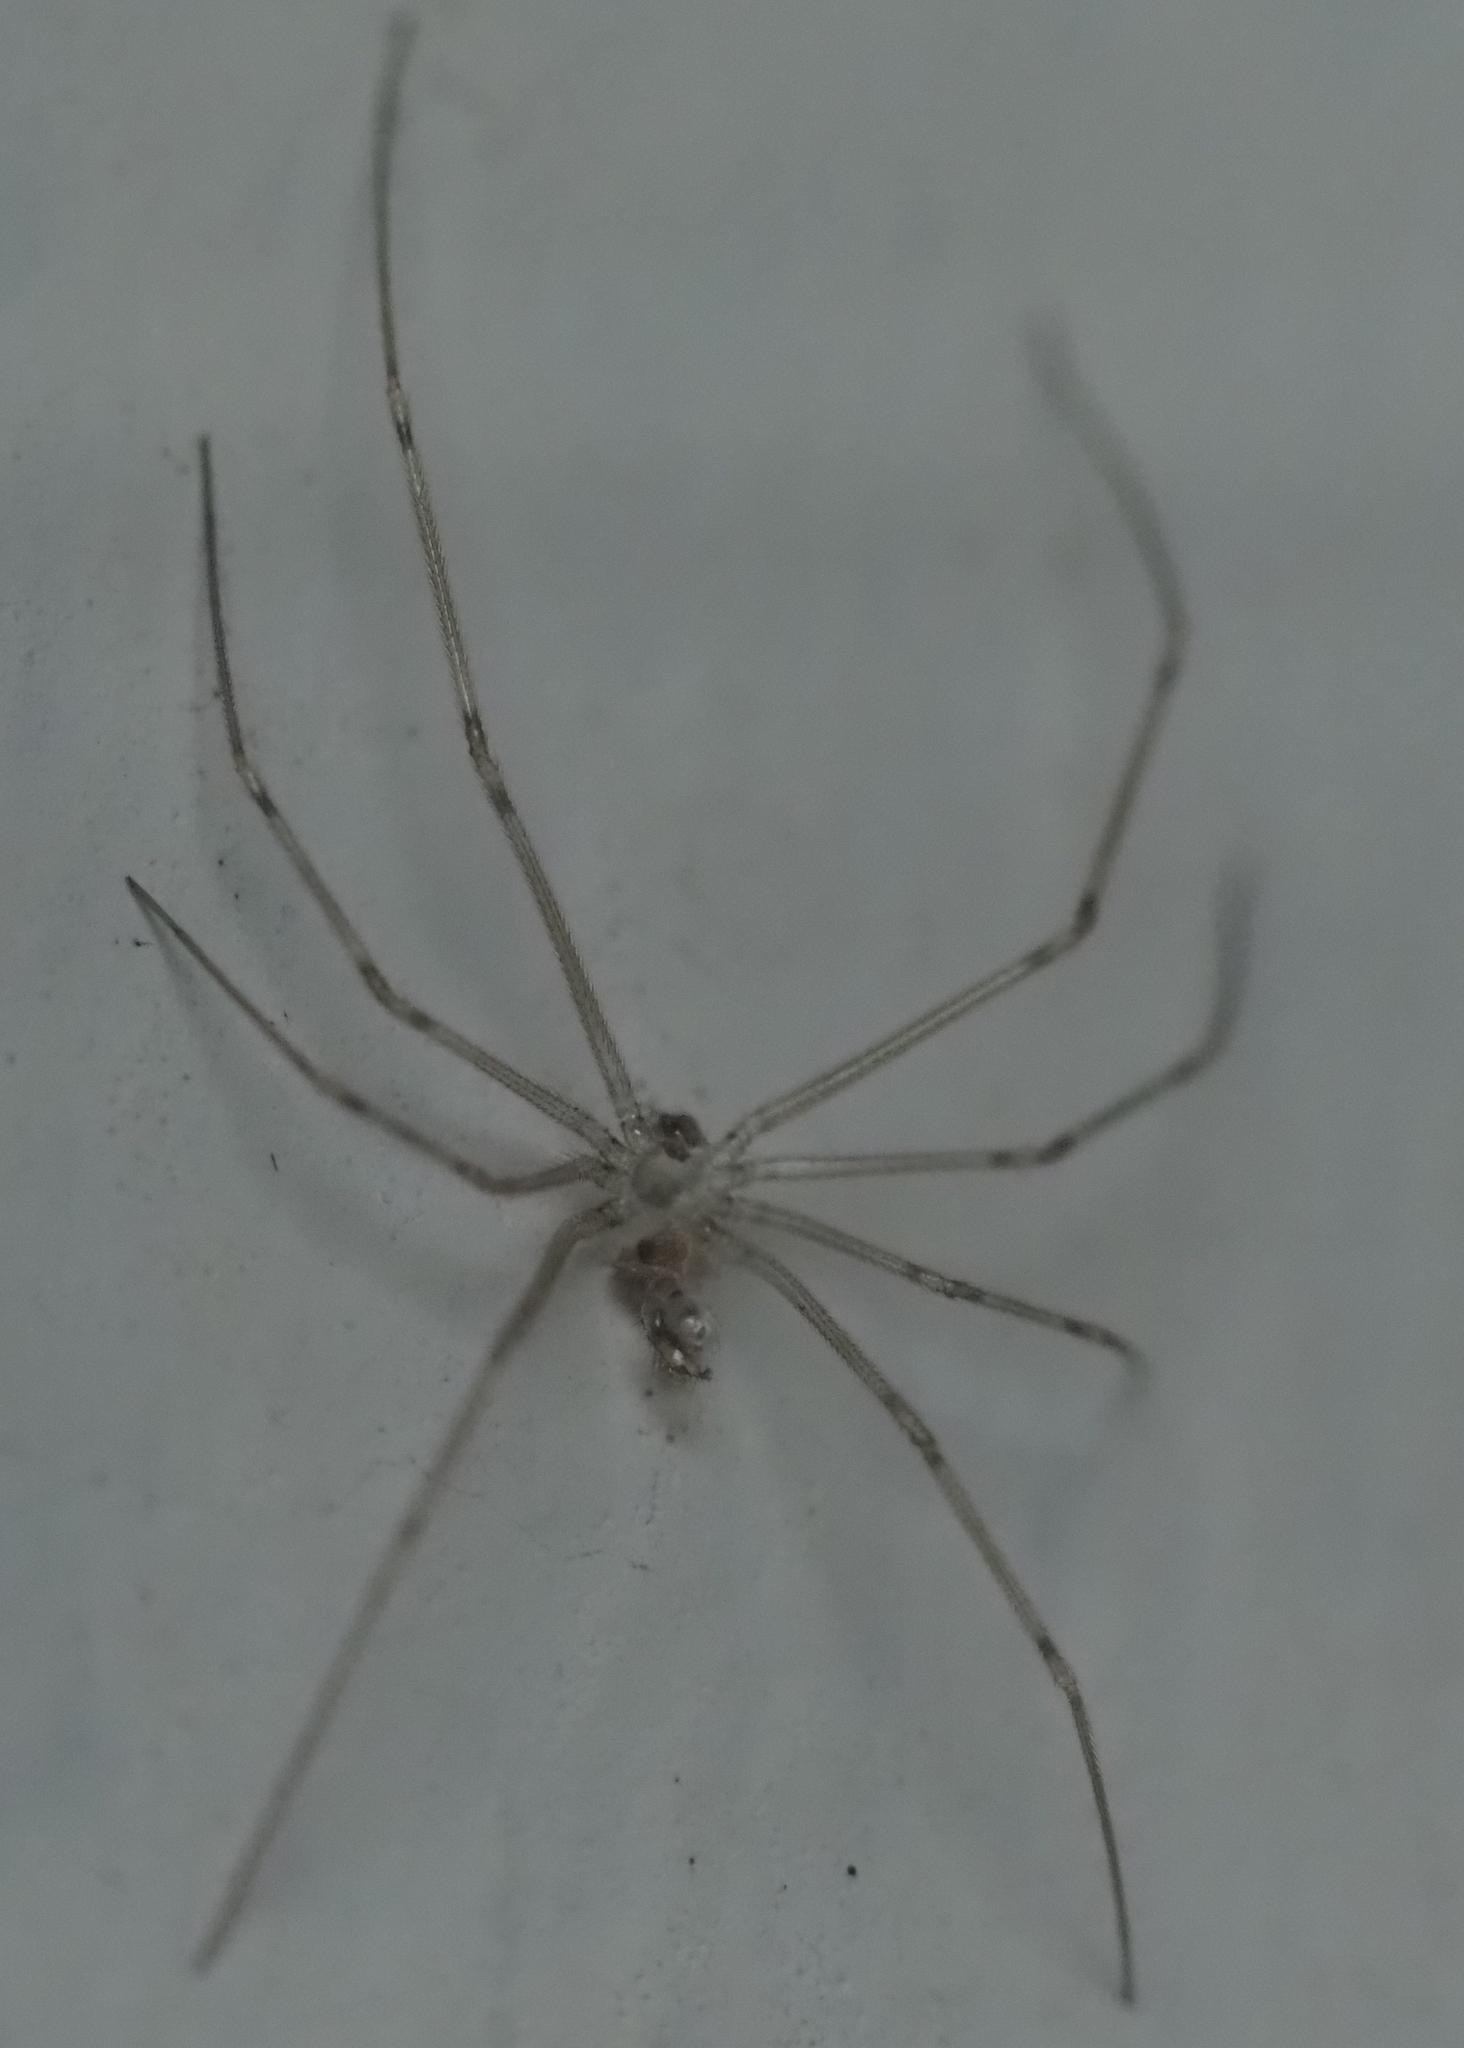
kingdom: Animalia
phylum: Arthropoda
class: Arachnida
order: Araneae
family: Pholcidae
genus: Physocyclus
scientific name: Physocyclus globosus
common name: Cellar spiders
